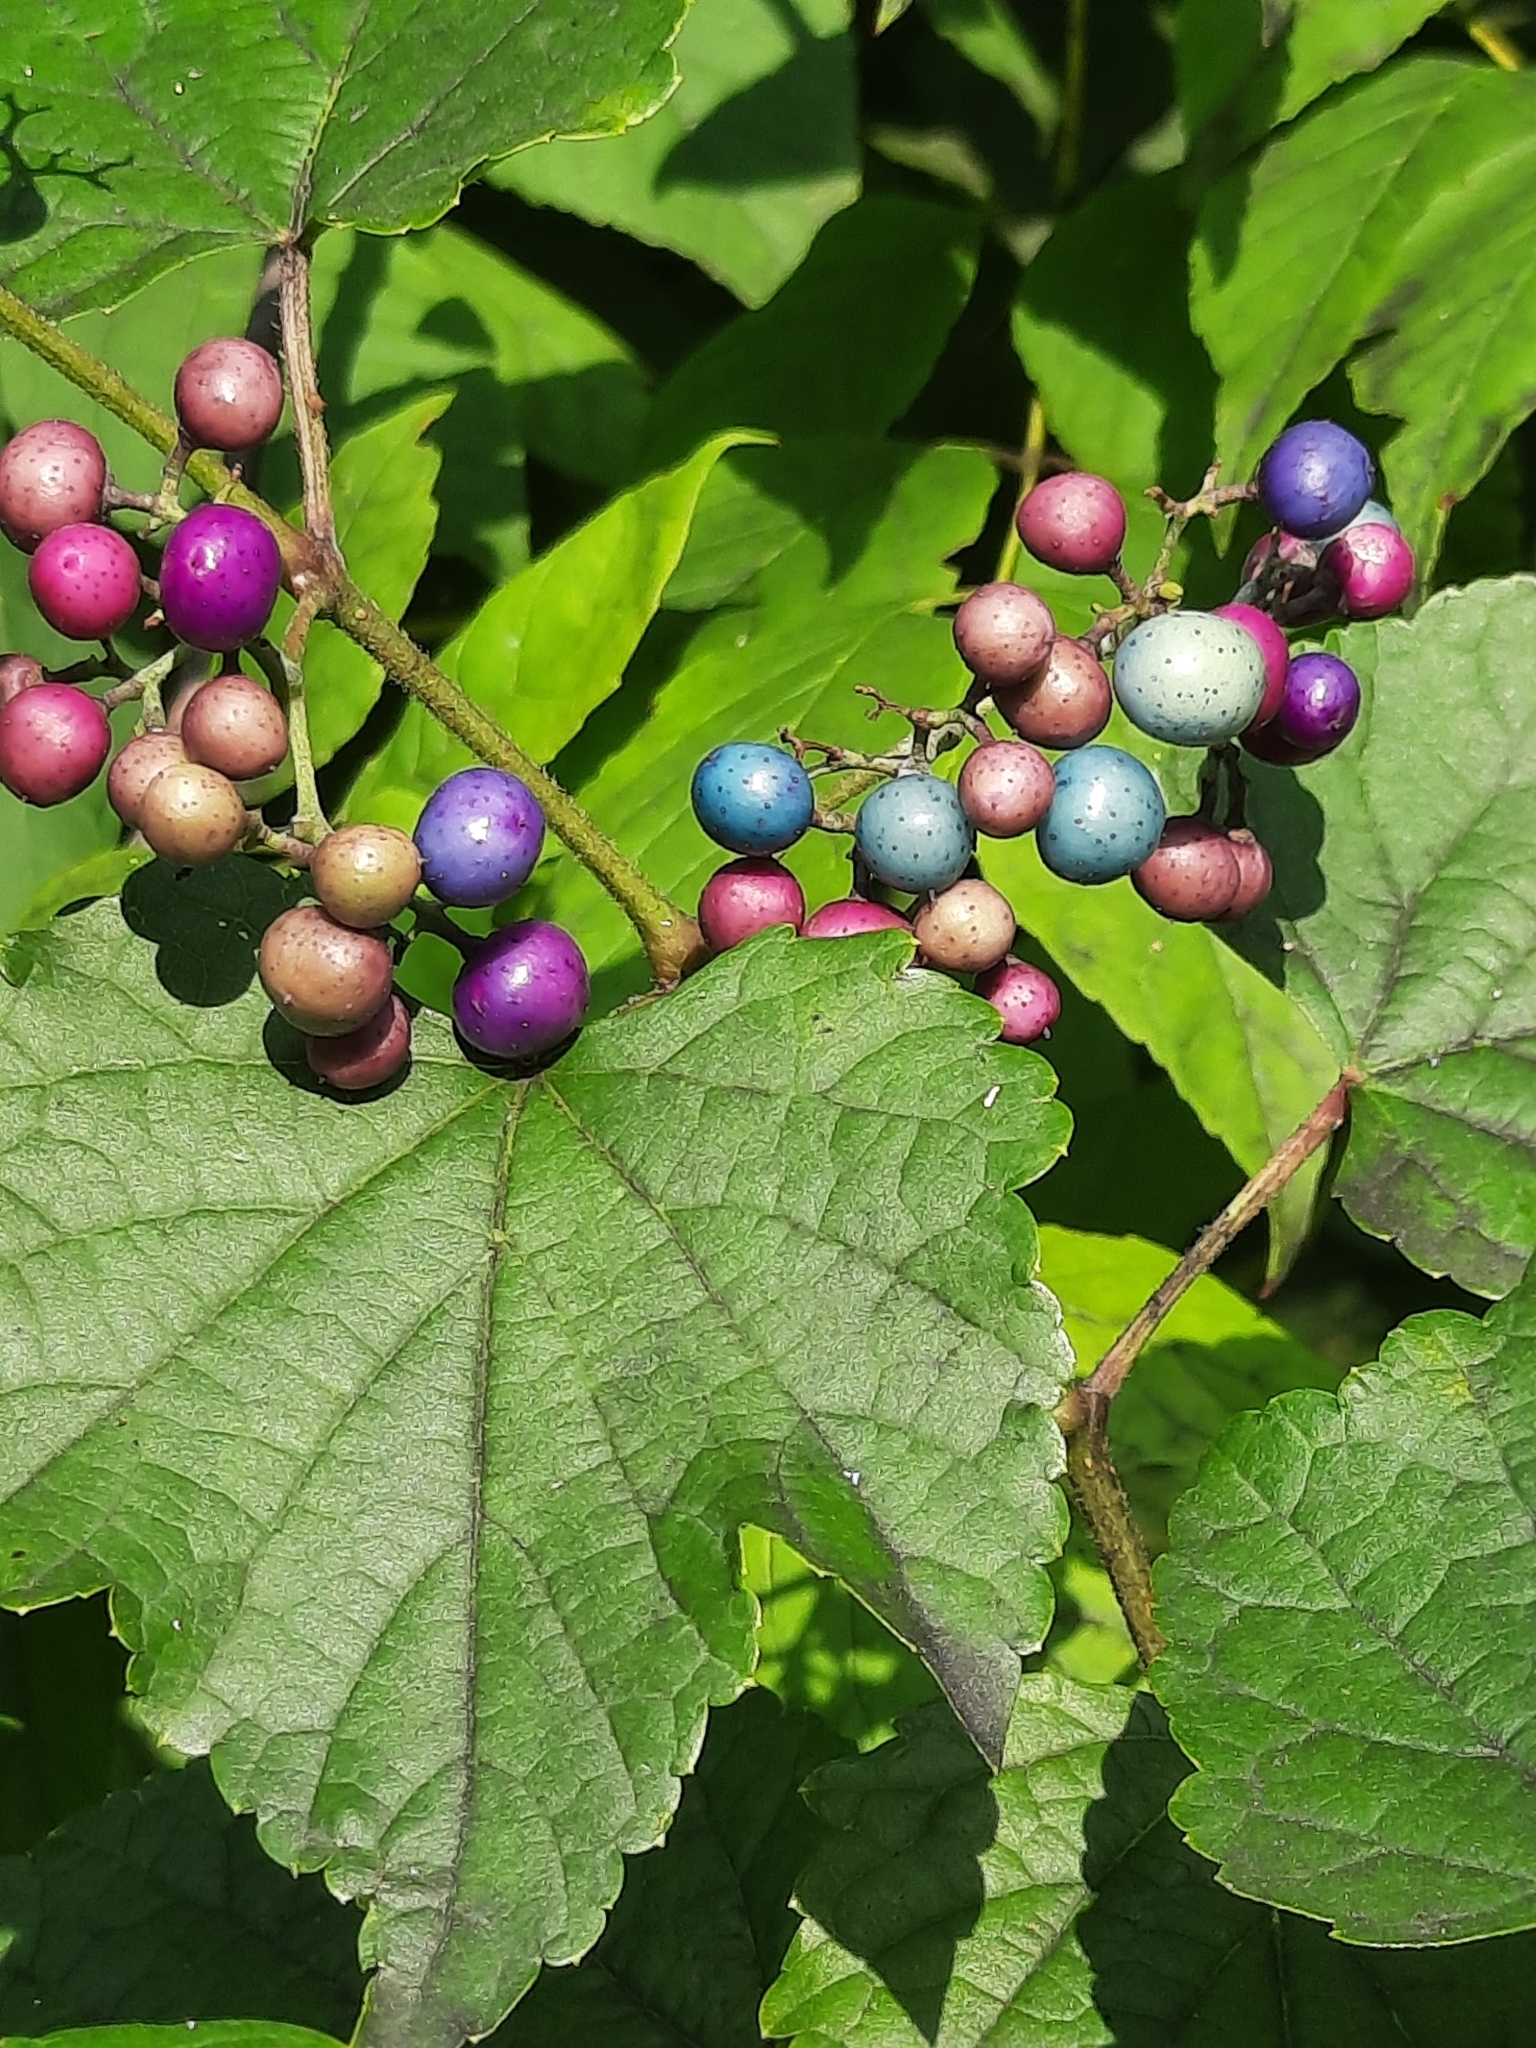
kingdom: Plantae
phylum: Tracheophyta
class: Magnoliopsida
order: Vitales
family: Vitaceae
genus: Ampelopsis
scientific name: Ampelopsis glandulosa
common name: Amur peppervine
